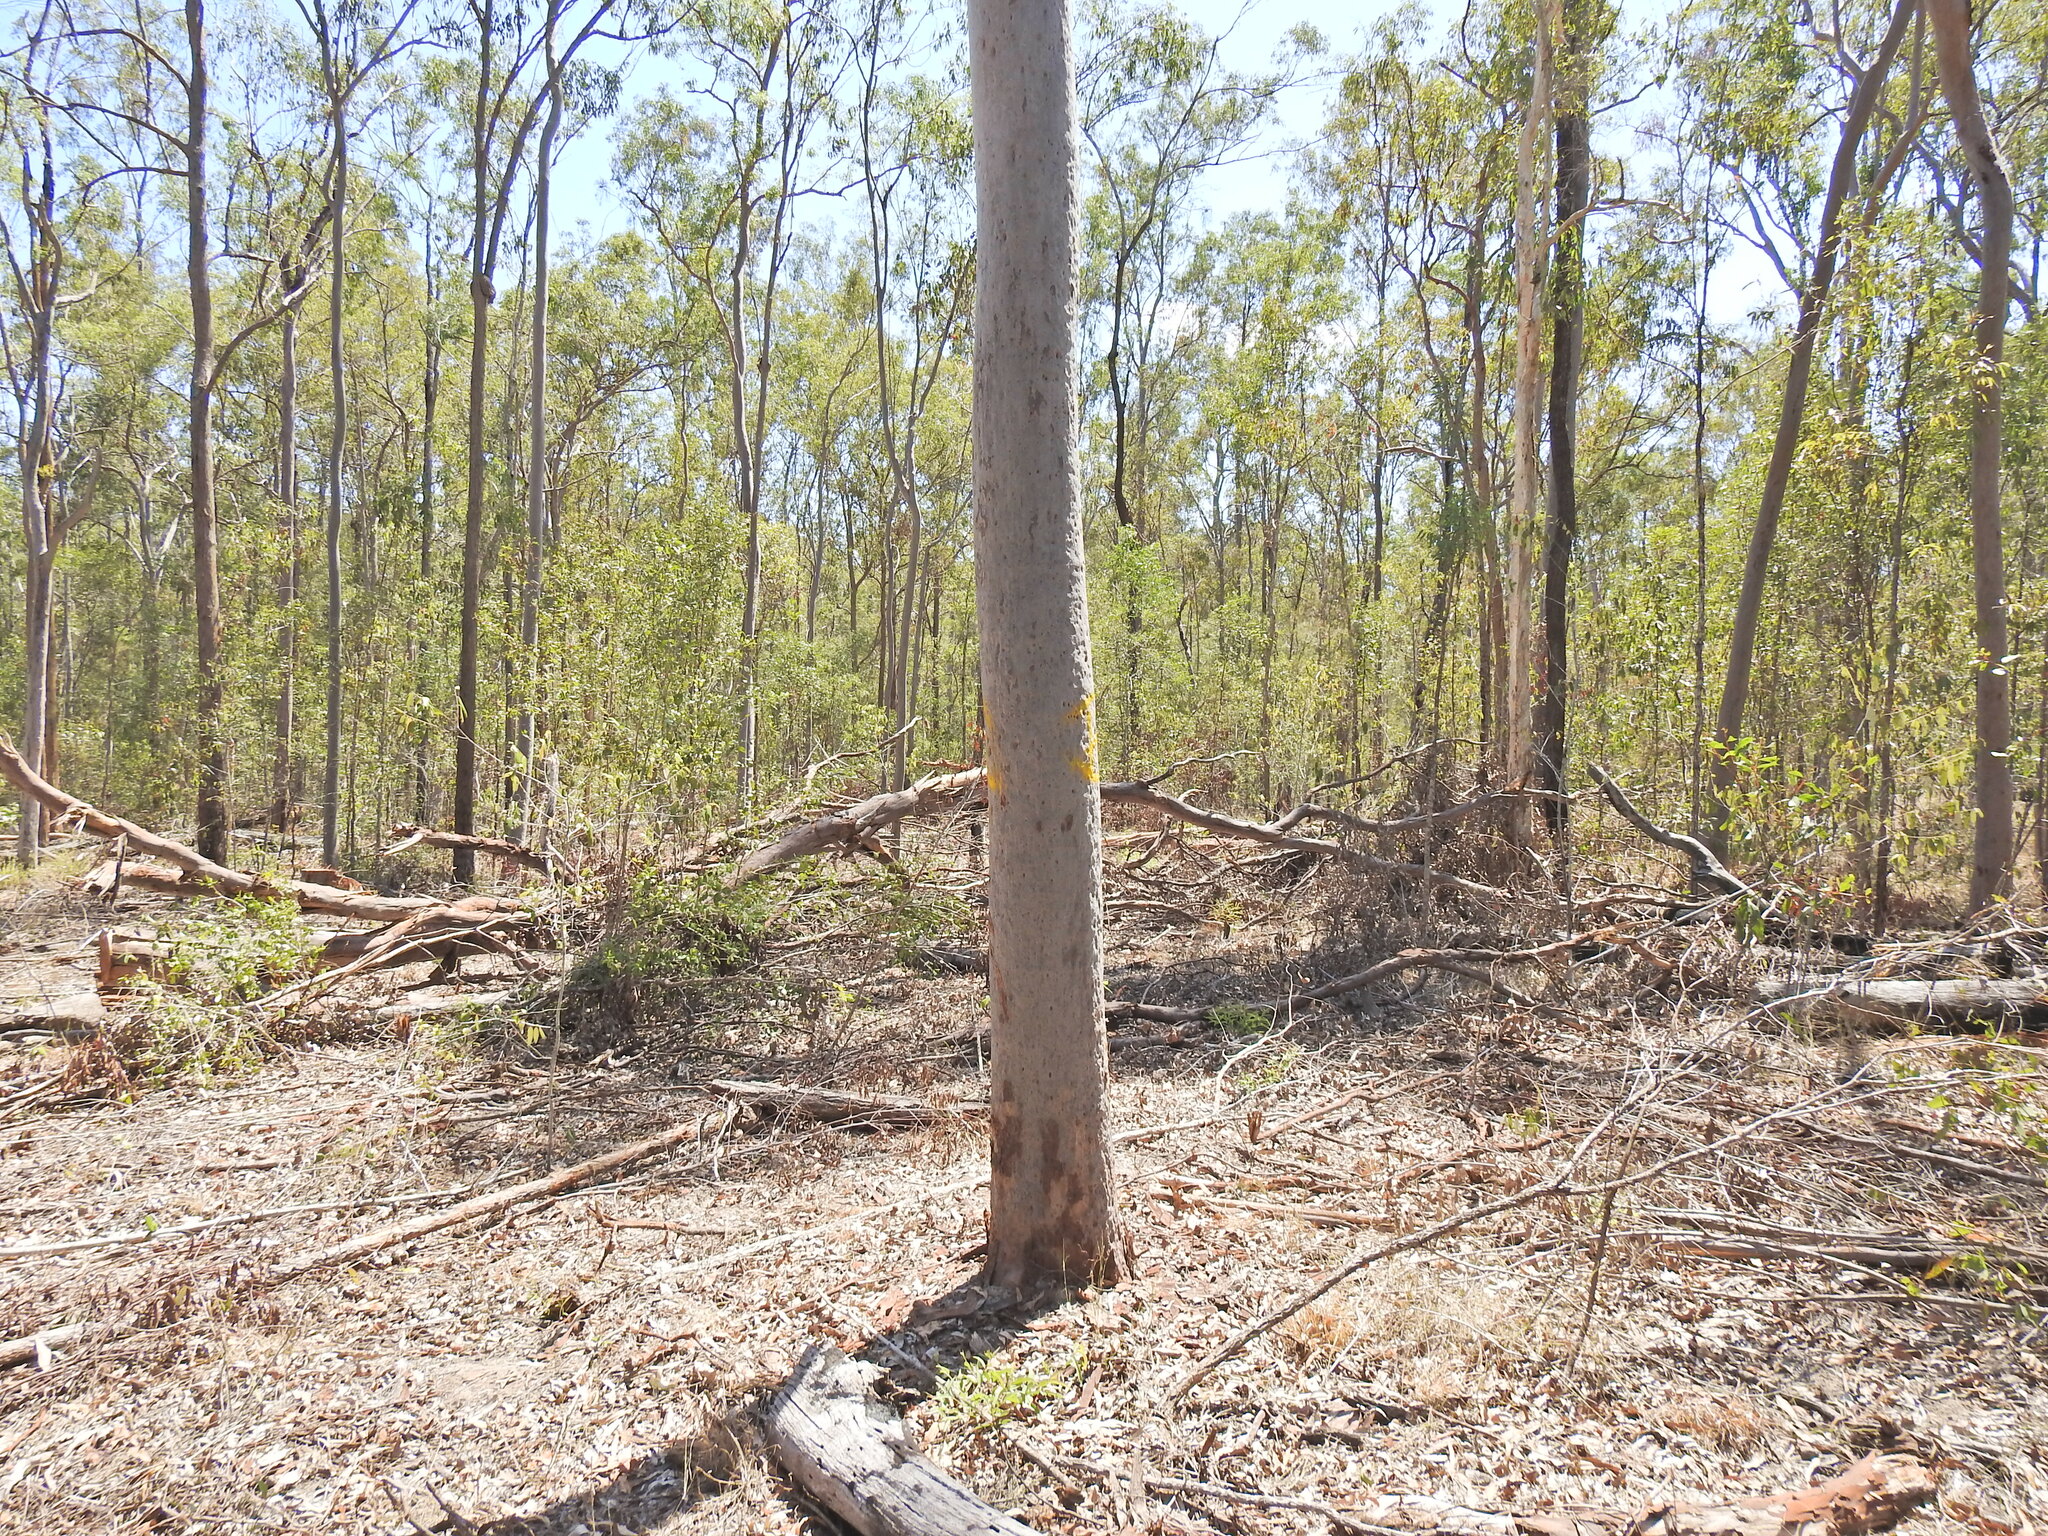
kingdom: Plantae
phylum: Tracheophyta
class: Magnoliopsida
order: Myrtales
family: Myrtaceae
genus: Corymbia
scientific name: Corymbia citriodora
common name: Lemonscented gum
